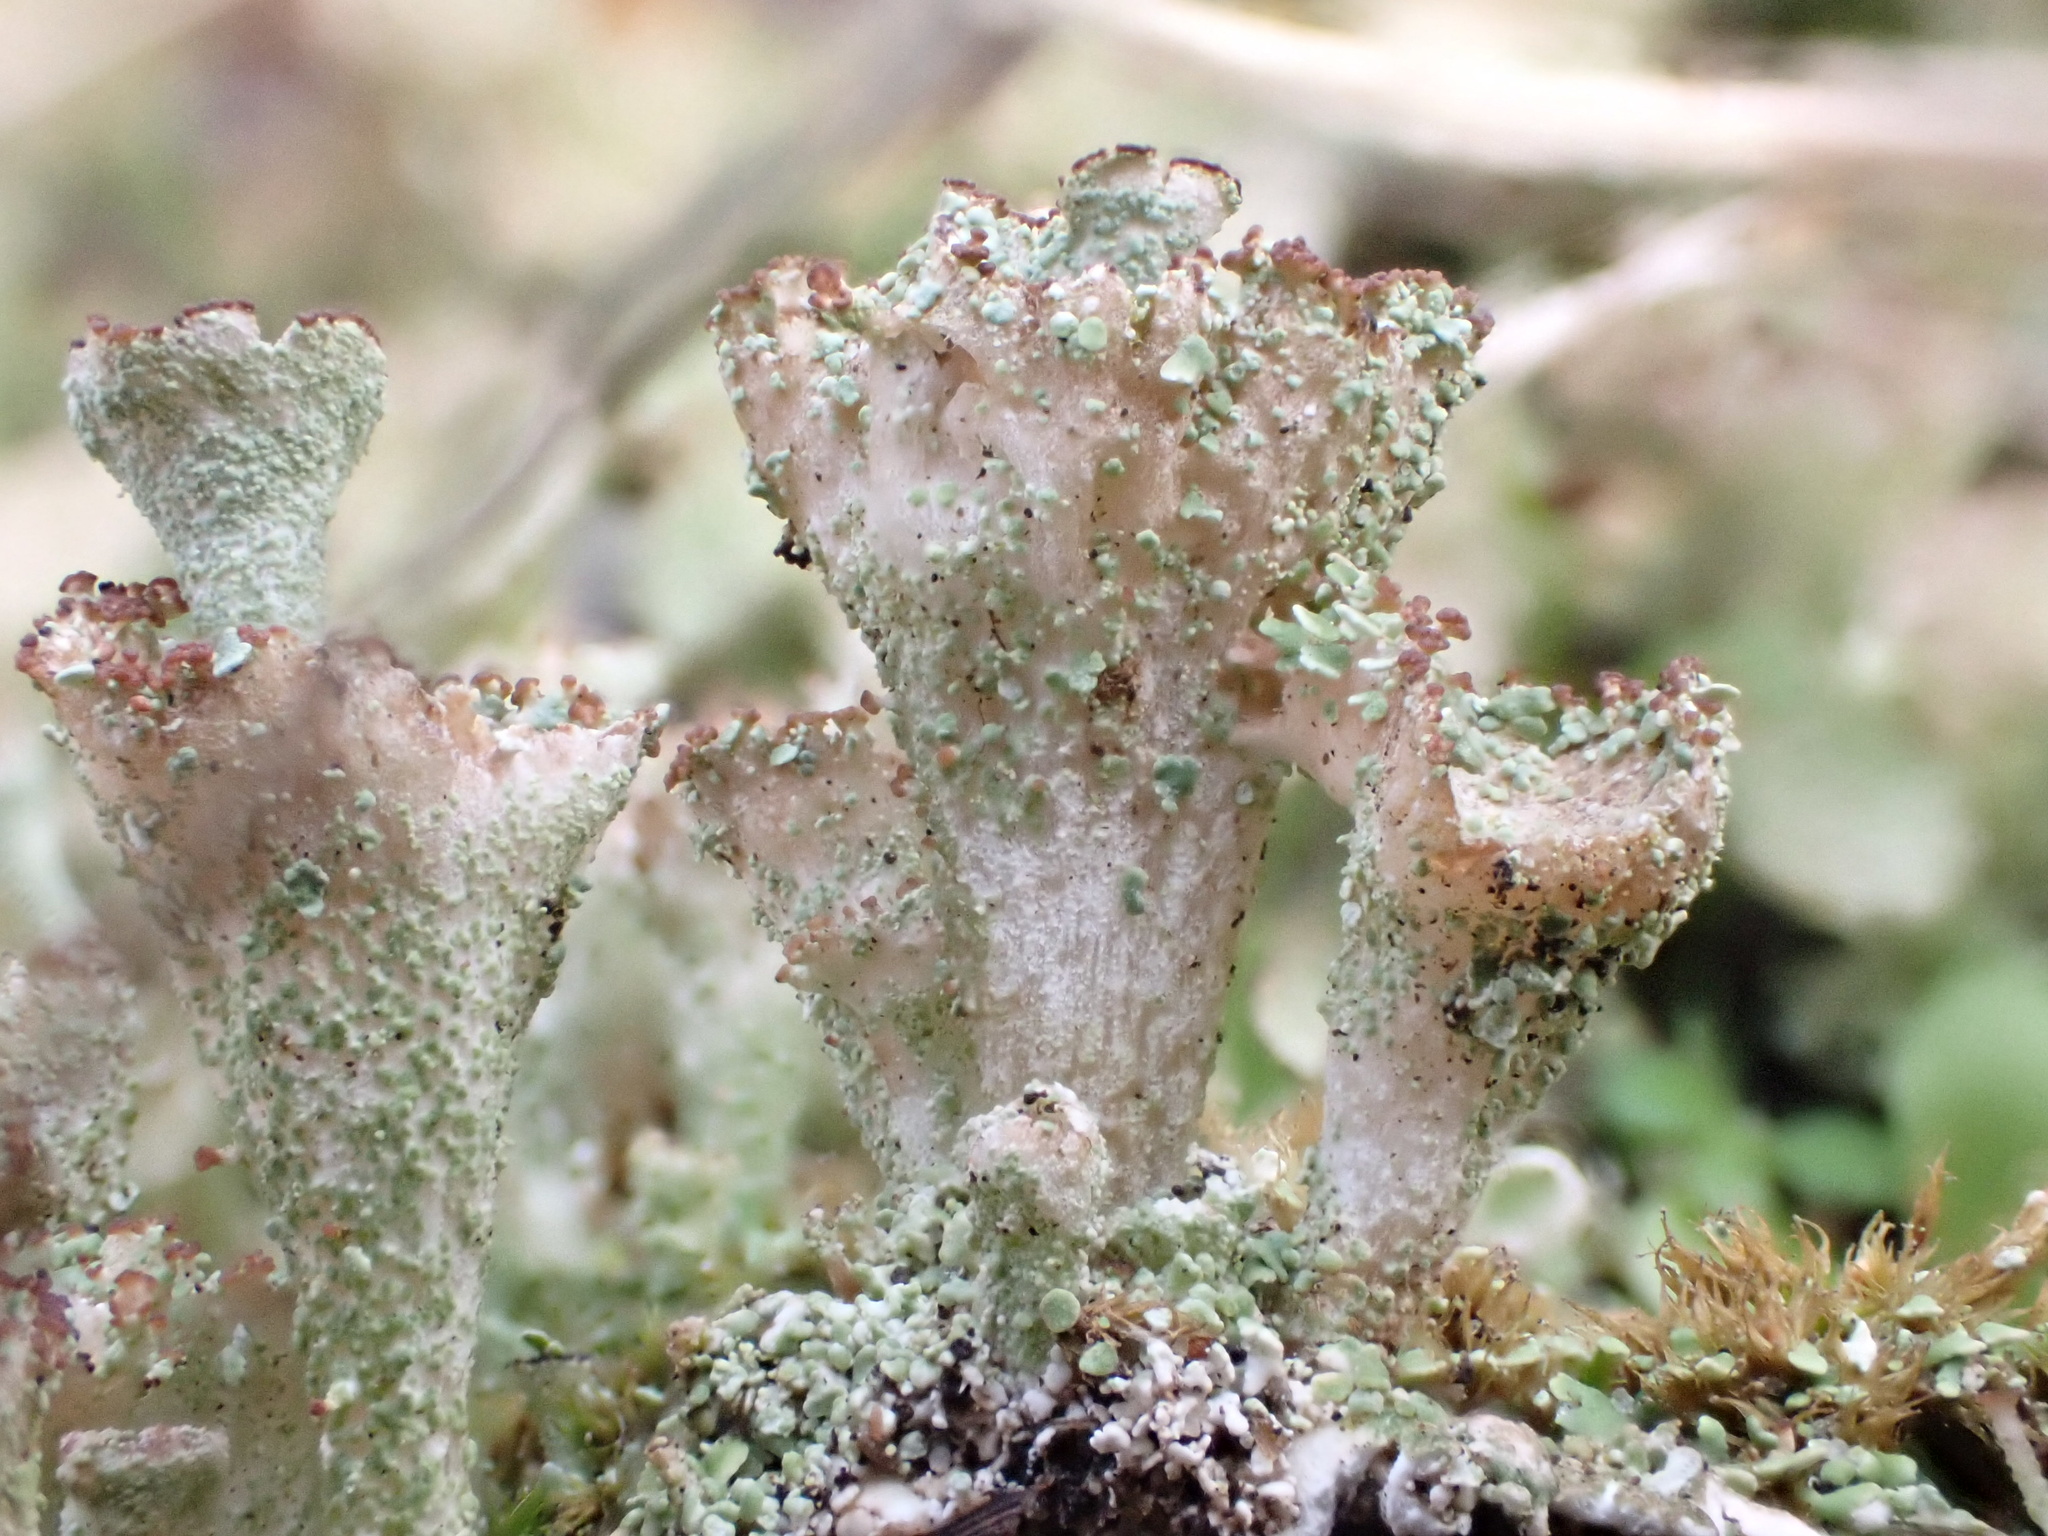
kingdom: Fungi
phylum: Ascomycota
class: Lecanoromycetes
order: Lecanorales
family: Cladoniaceae
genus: Cladonia
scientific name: Cladonia ramulosa
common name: Branched pixie-cup lichen
